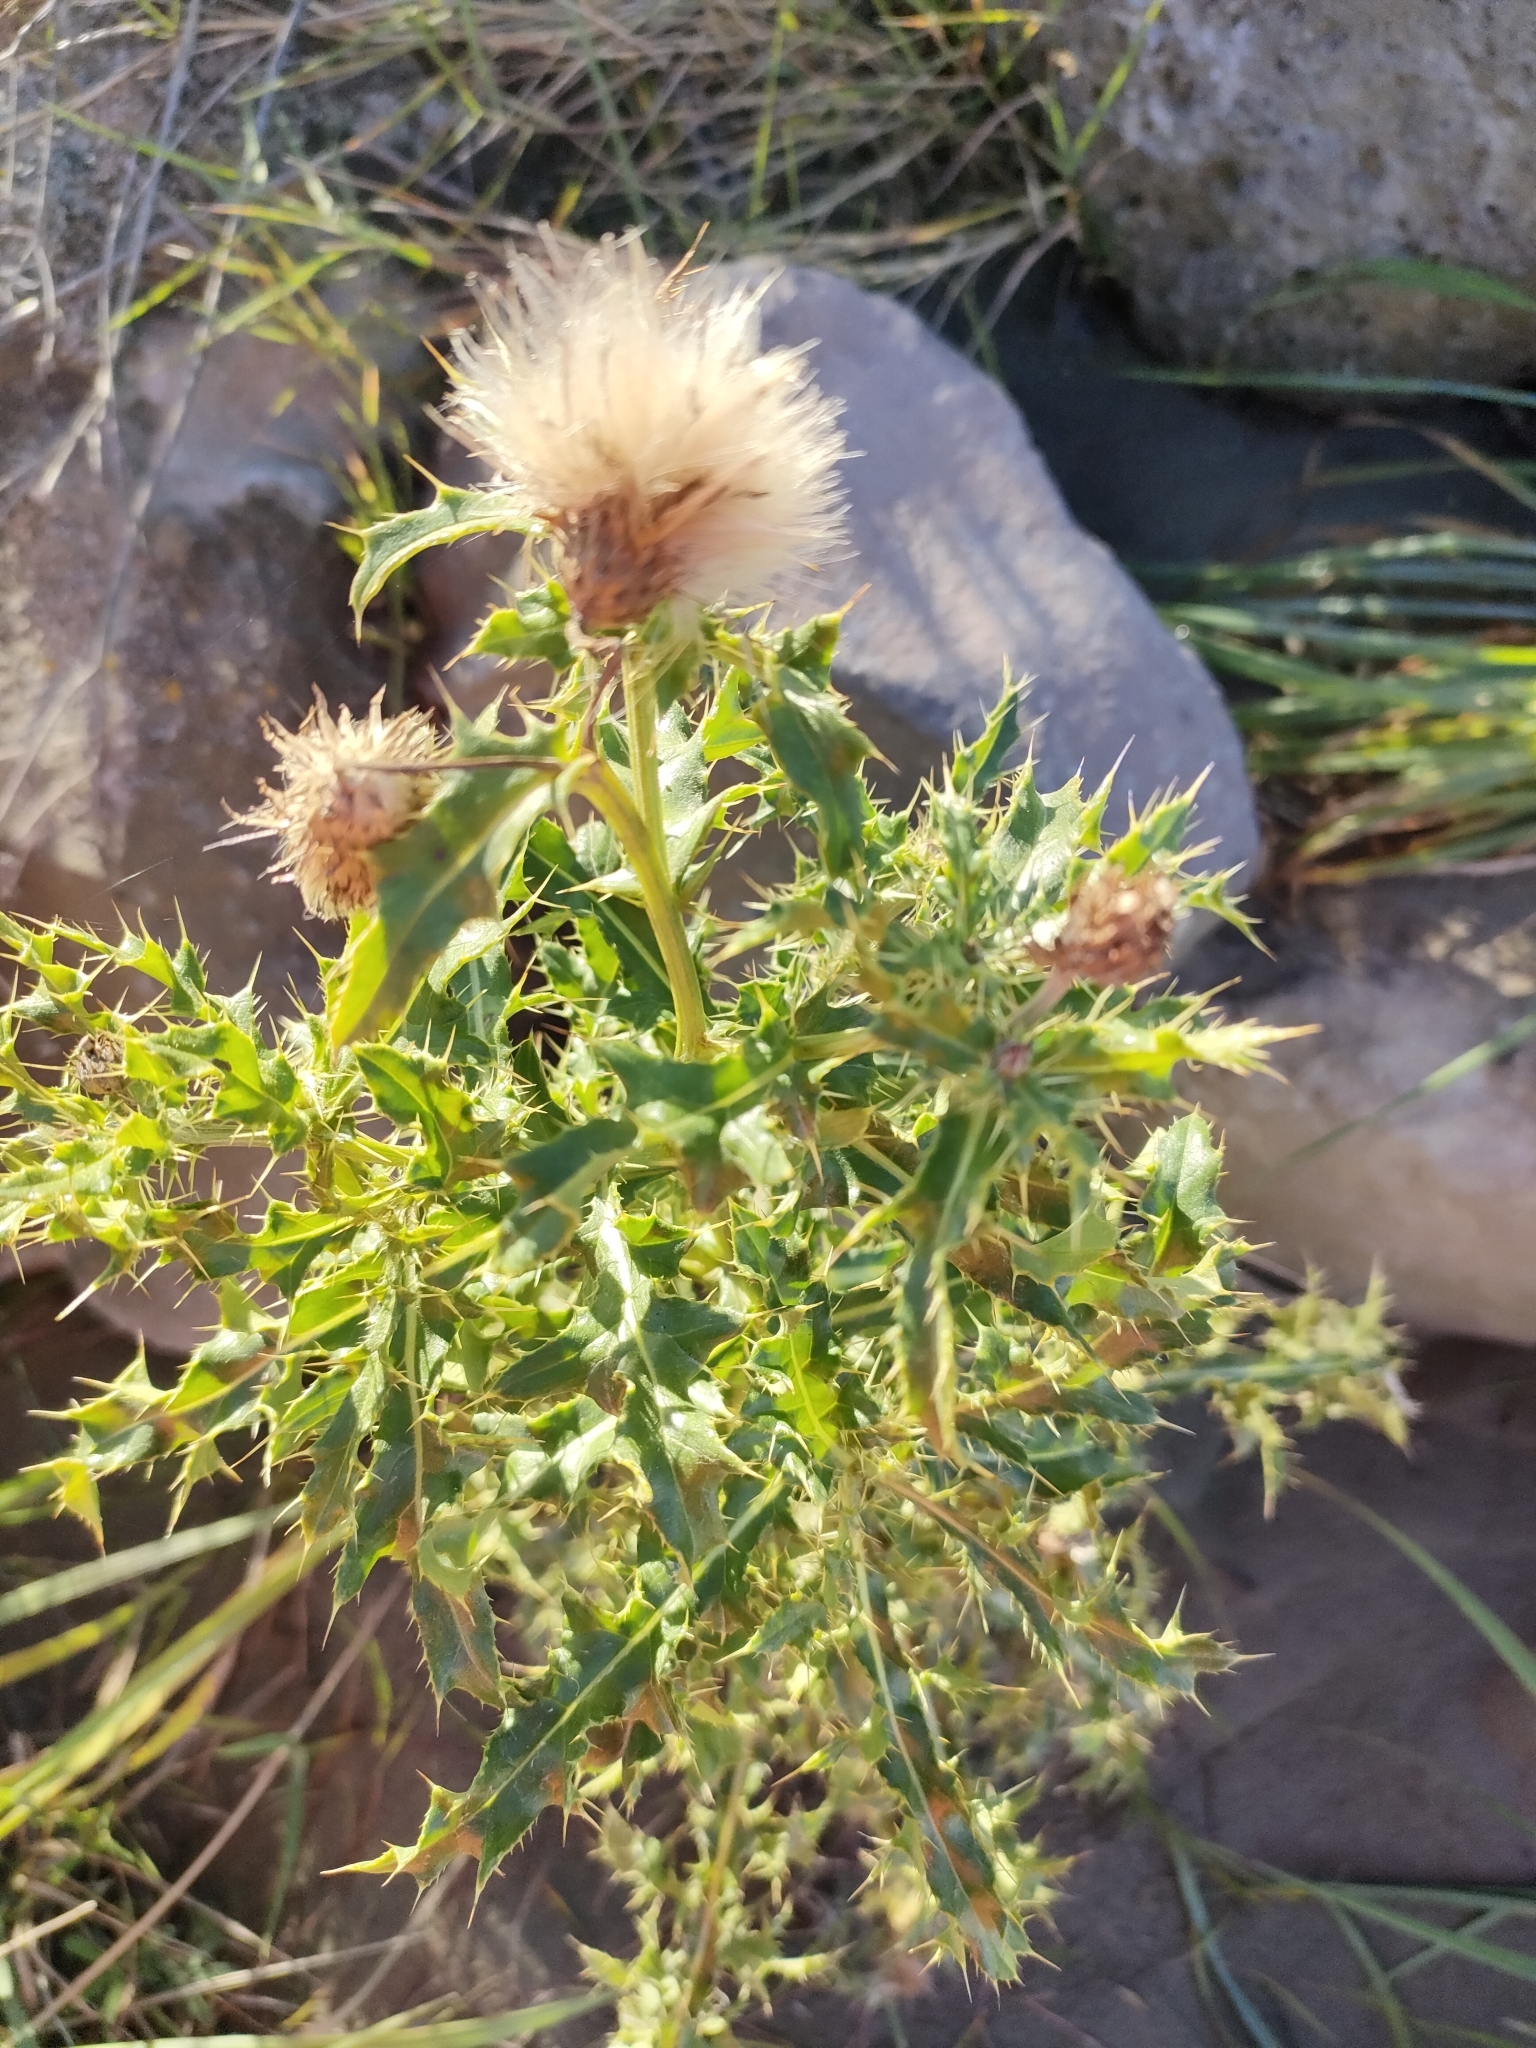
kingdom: Plantae
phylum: Tracheophyta
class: Magnoliopsida
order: Asterales
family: Asteraceae
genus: Cirsium
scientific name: Cirsium arvense
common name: Creeping thistle
